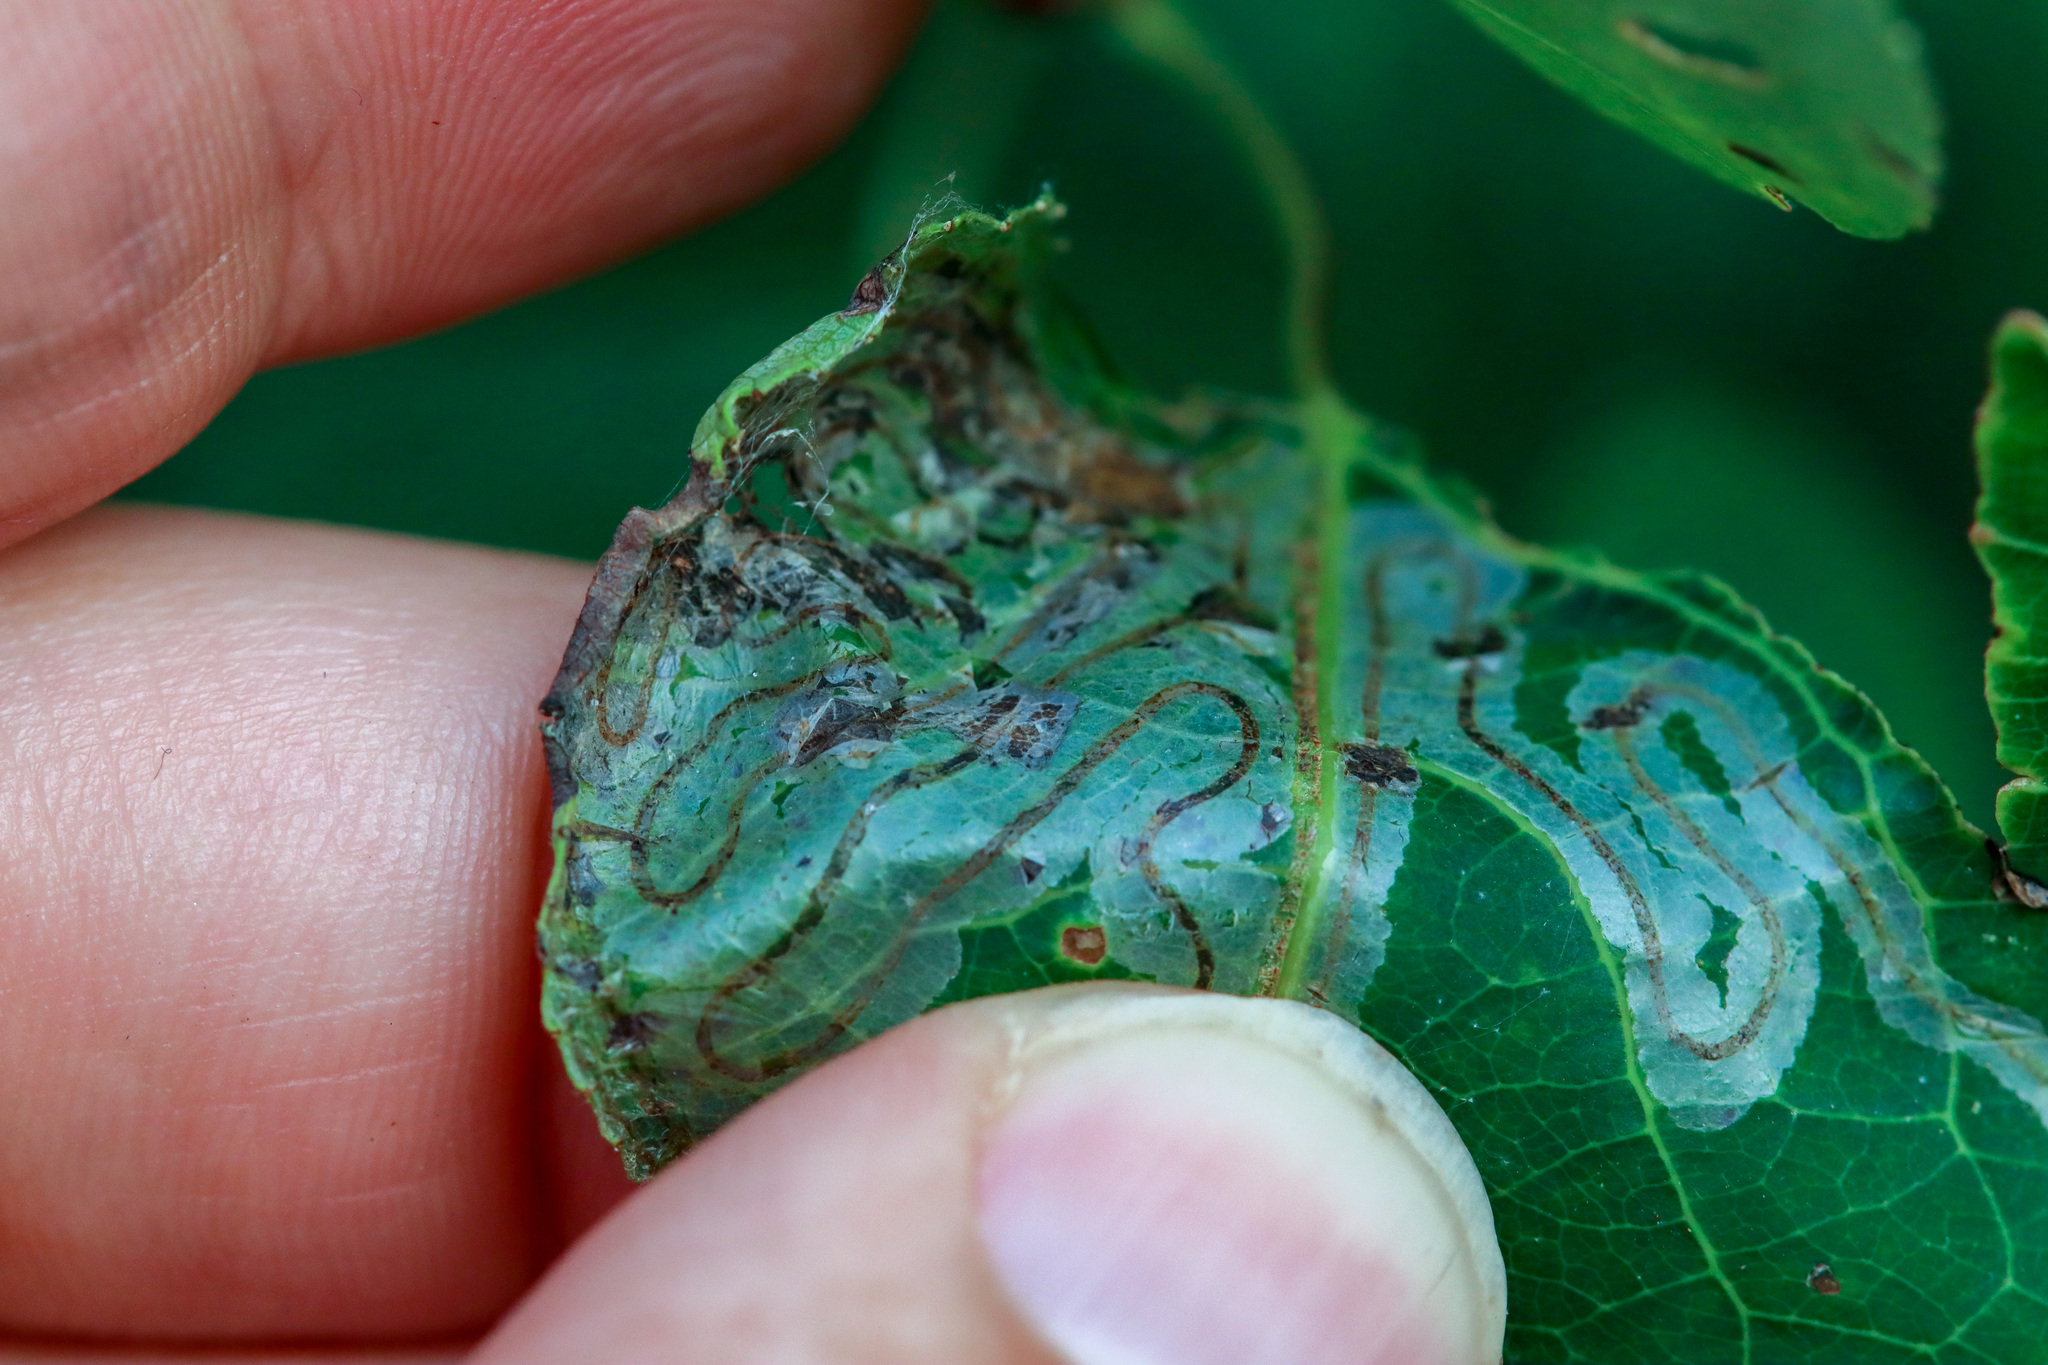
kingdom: Animalia
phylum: Arthropoda
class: Insecta
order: Lepidoptera
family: Gracillariidae
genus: Phyllocnistis
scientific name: Phyllocnistis populiella
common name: Aspen serpentine leafminer moth
